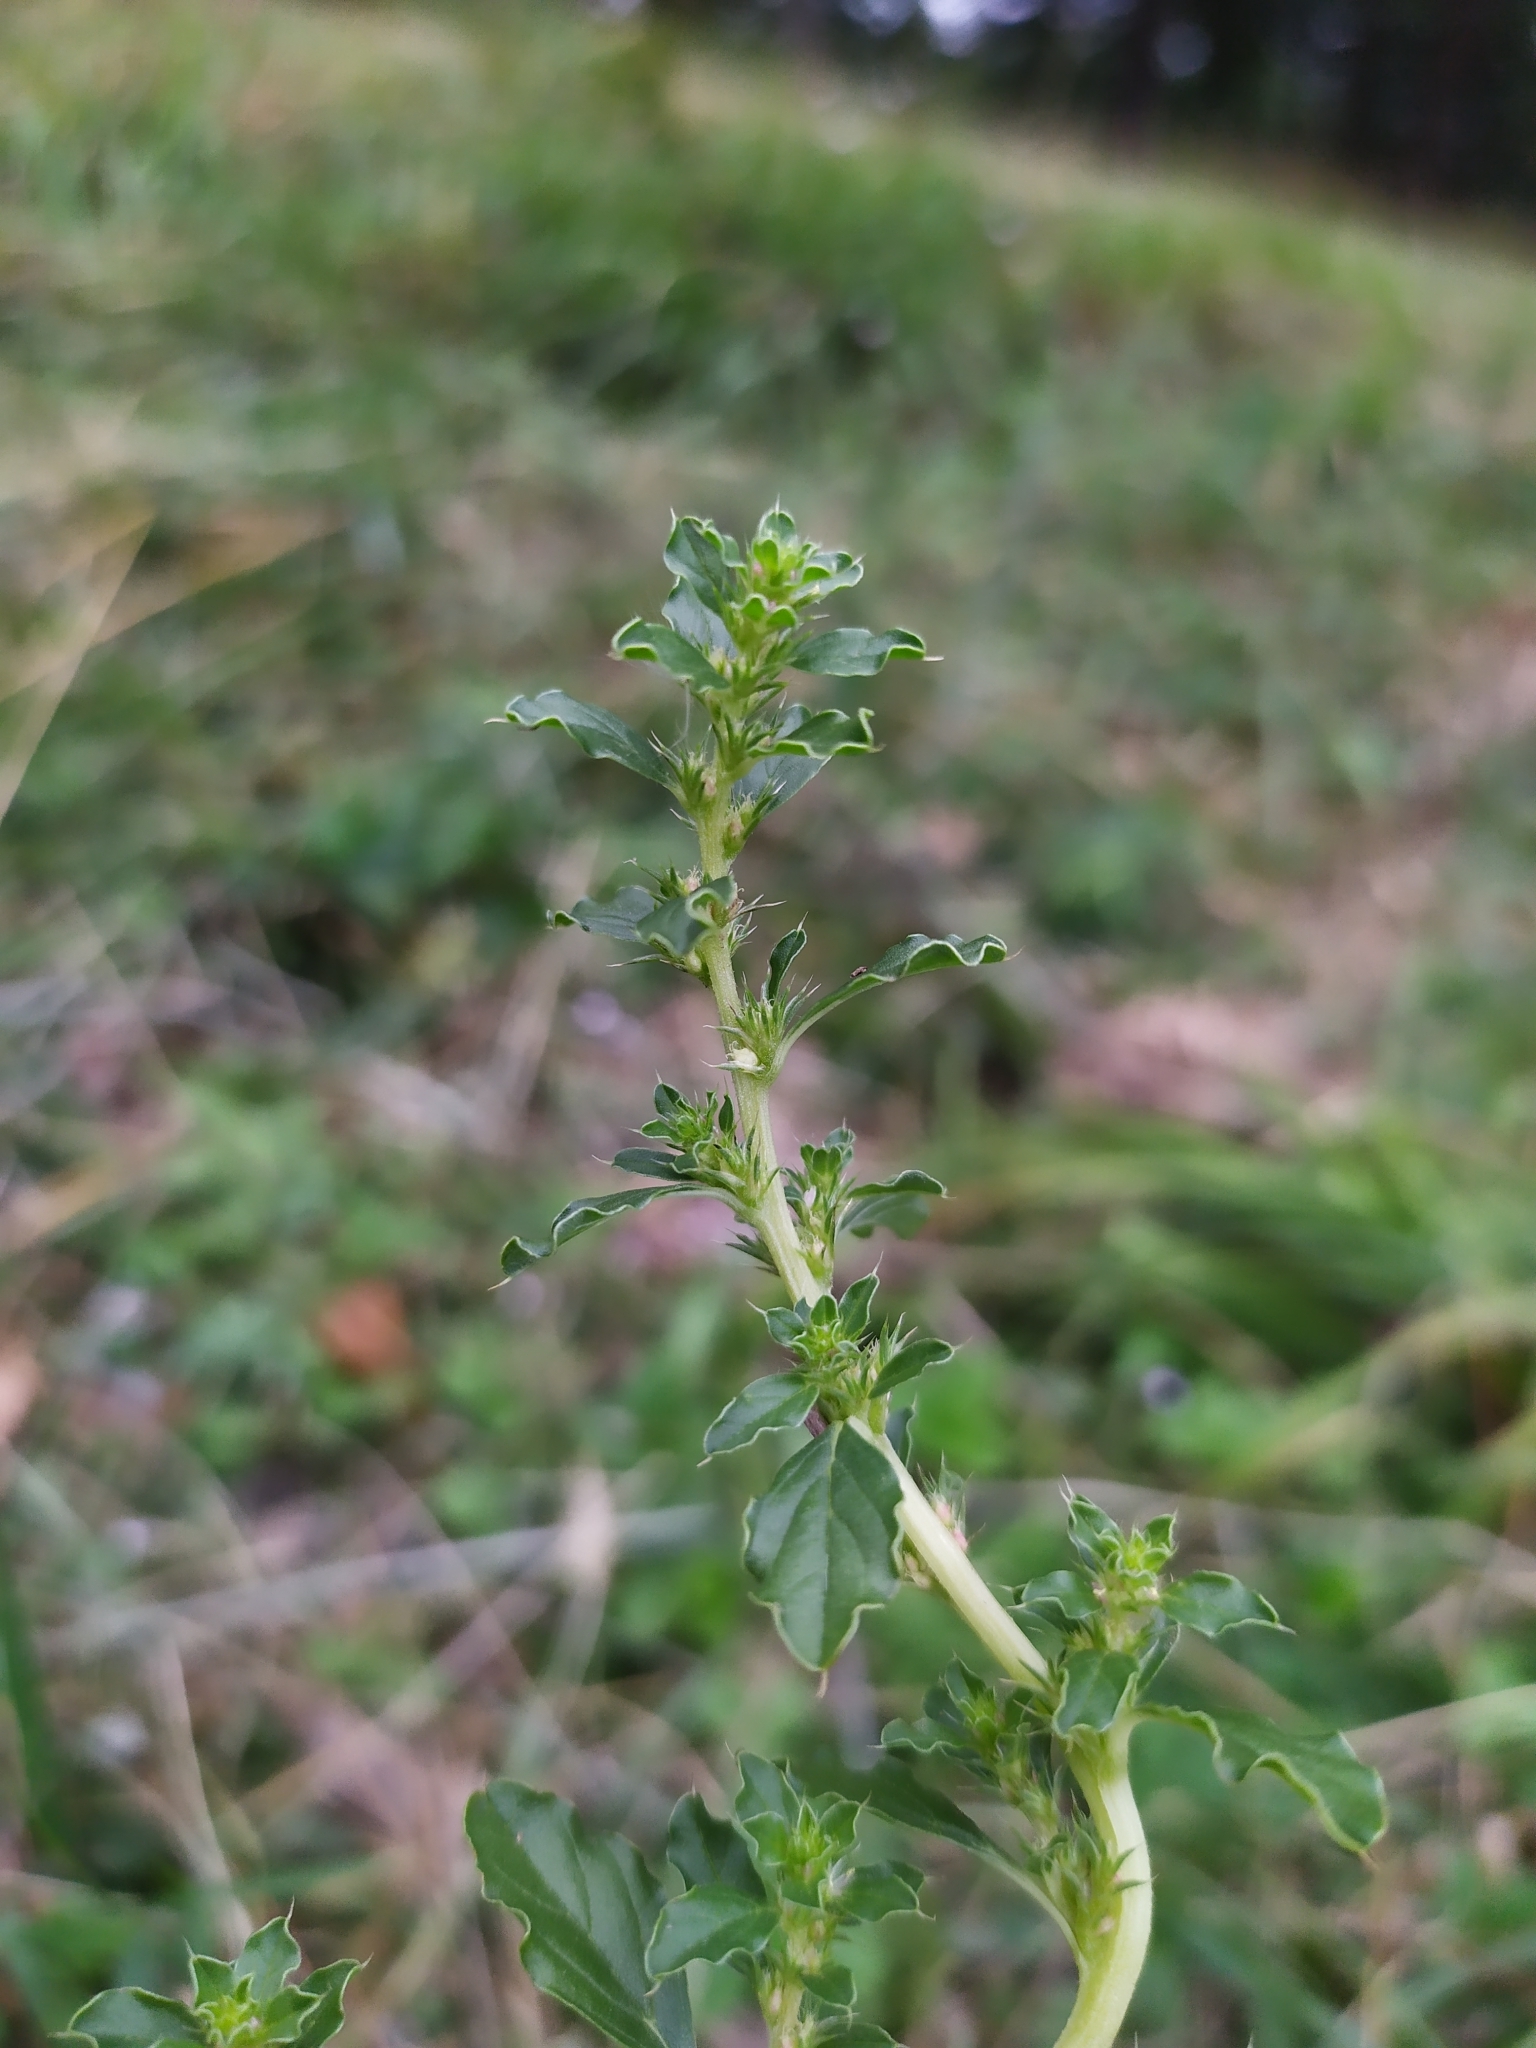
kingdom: Plantae
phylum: Tracheophyta
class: Magnoliopsida
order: Caryophyllales
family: Amaranthaceae
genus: Amaranthus
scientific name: Amaranthus albus
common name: White pigweed
